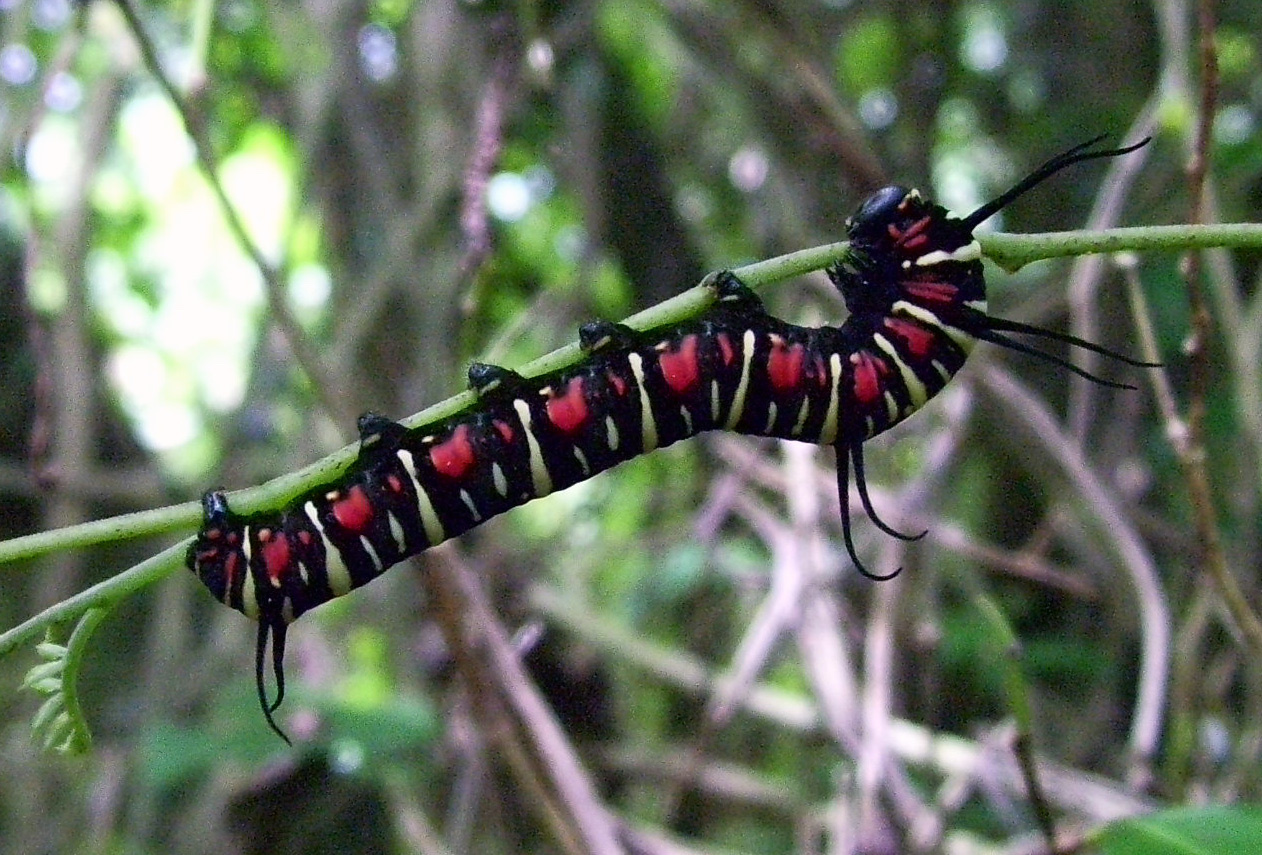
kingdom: Animalia
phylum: Arthropoda
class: Insecta
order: Lepidoptera
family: Nymphalidae
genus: Euploea
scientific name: Euploea eunice
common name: Blue-banded king crow butterfly
